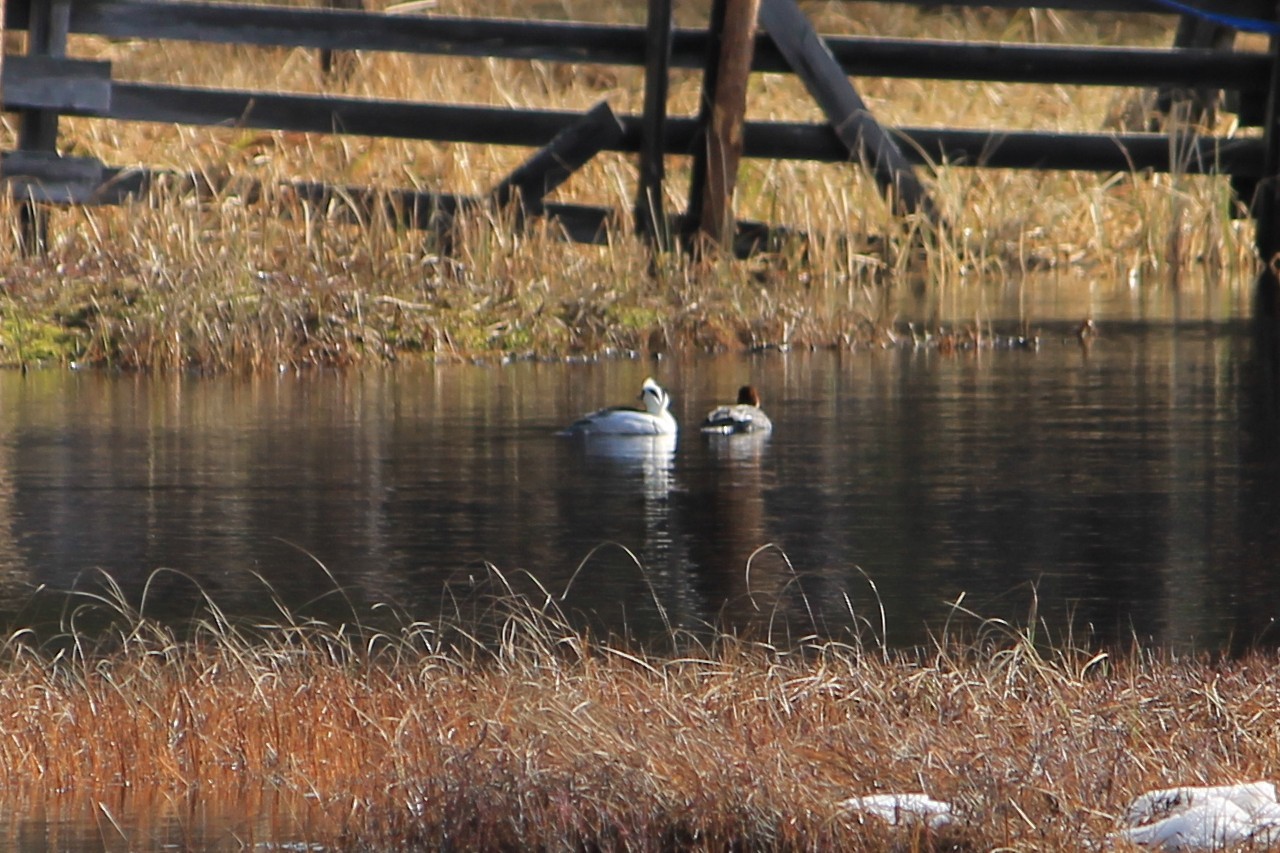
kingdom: Animalia
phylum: Chordata
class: Aves
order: Anseriformes
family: Anatidae
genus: Mergellus
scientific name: Mergellus albellus
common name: Smew
